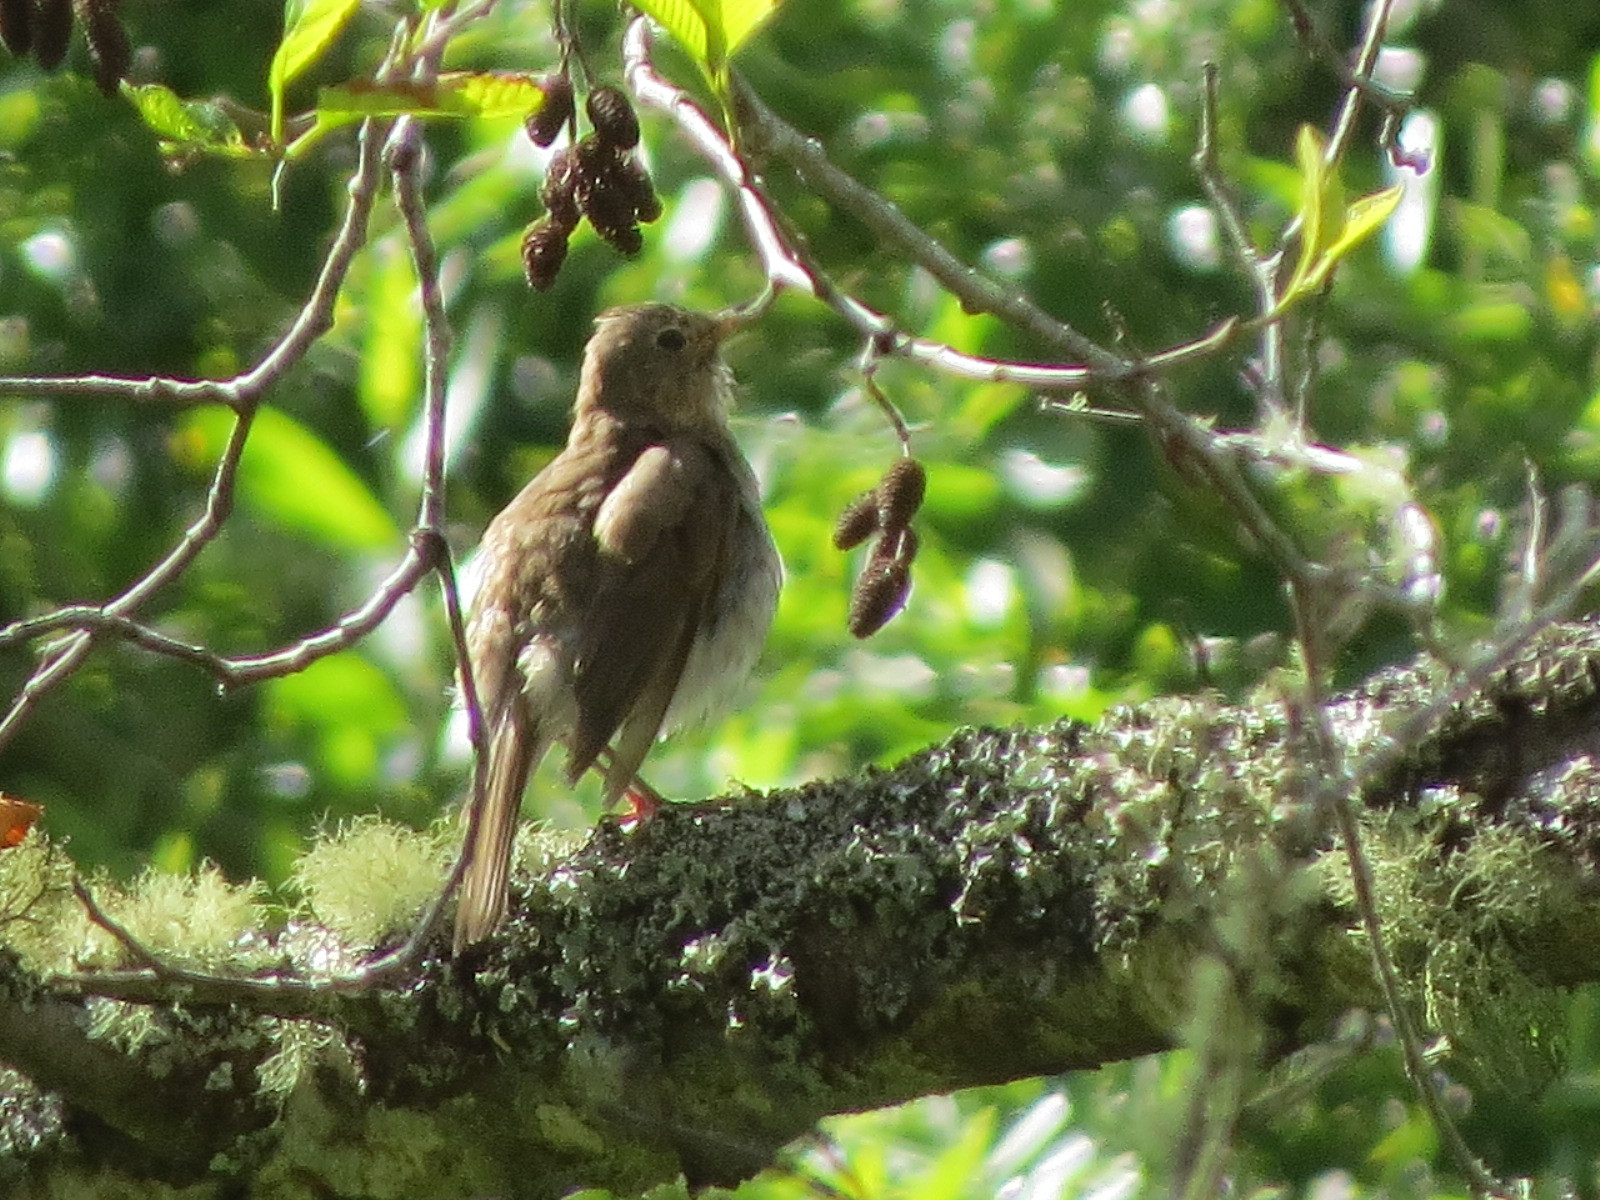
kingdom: Animalia
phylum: Chordata
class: Aves
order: Passeriformes
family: Turdidae
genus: Catharus
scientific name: Catharus ustulatus
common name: Swainson's thrush
